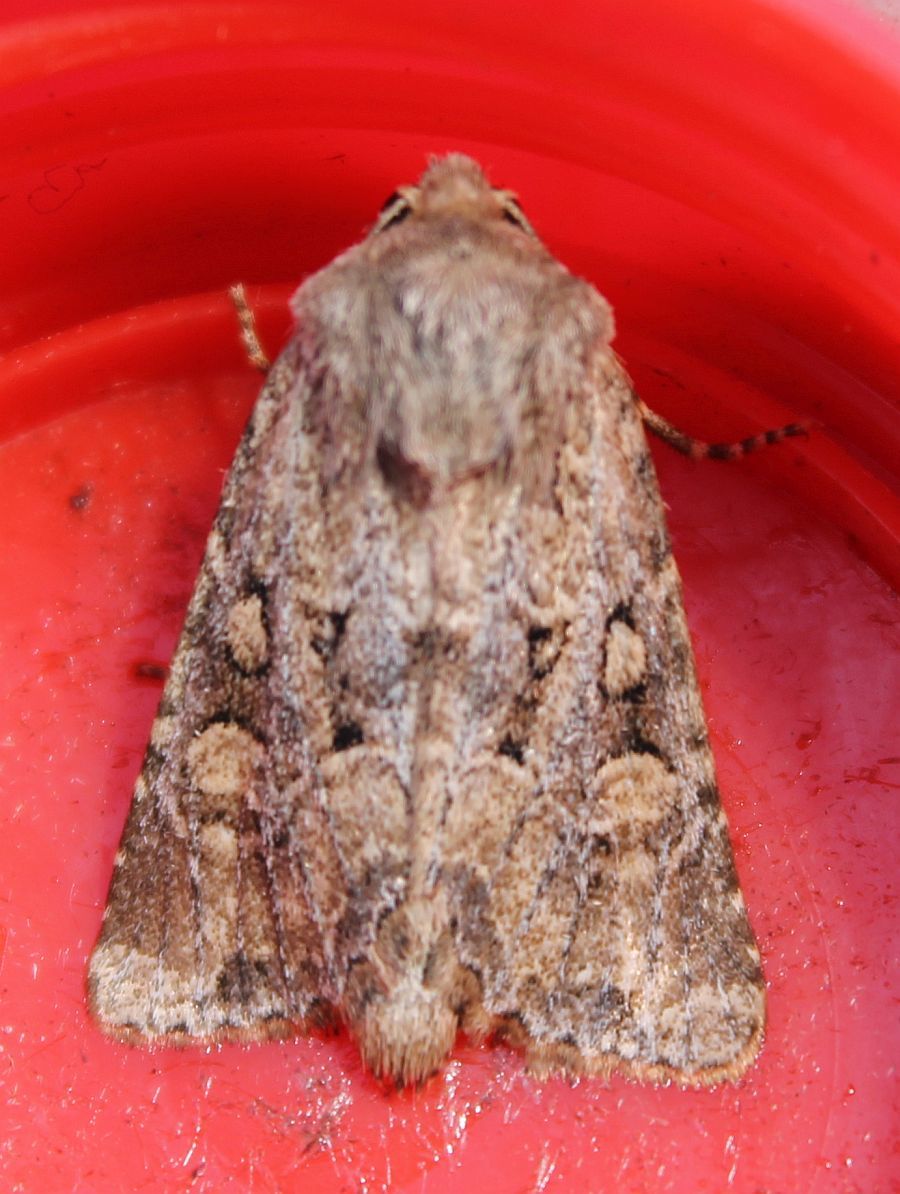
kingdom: Animalia
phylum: Arthropoda
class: Insecta
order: Lepidoptera
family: Noctuidae
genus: Luperina
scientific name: Luperina testacea
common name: Flounced rustic
